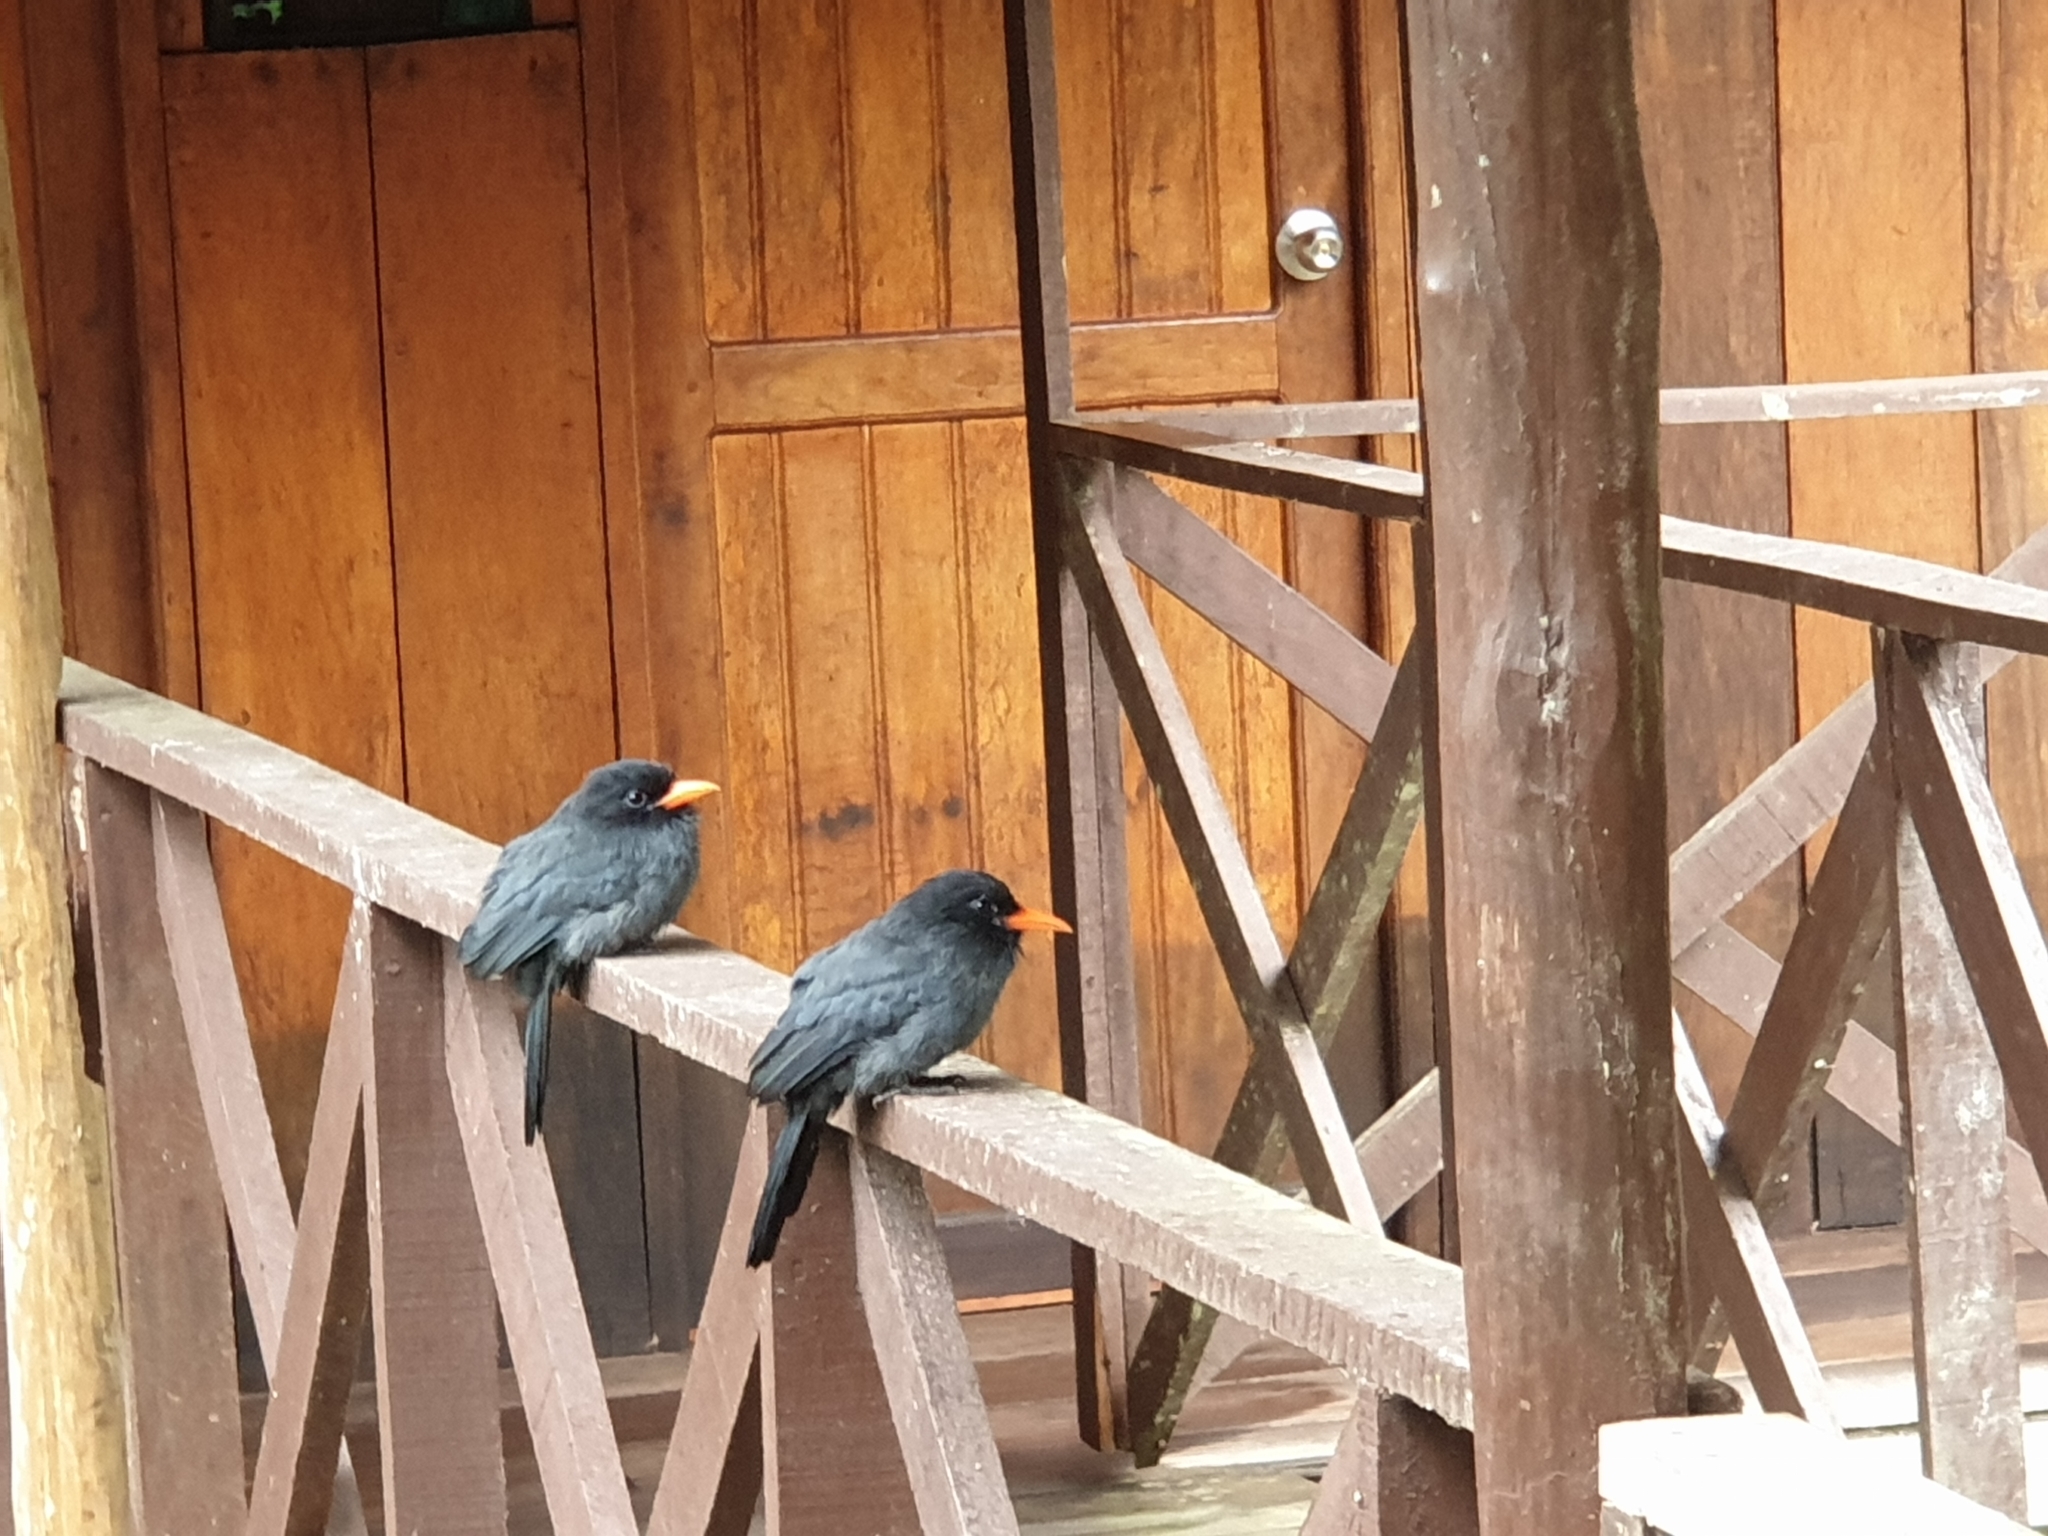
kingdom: Animalia
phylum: Chordata
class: Aves
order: Piciformes
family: Bucconidae
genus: Monasa
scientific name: Monasa nigrifrons
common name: Black-fronted nunbird
